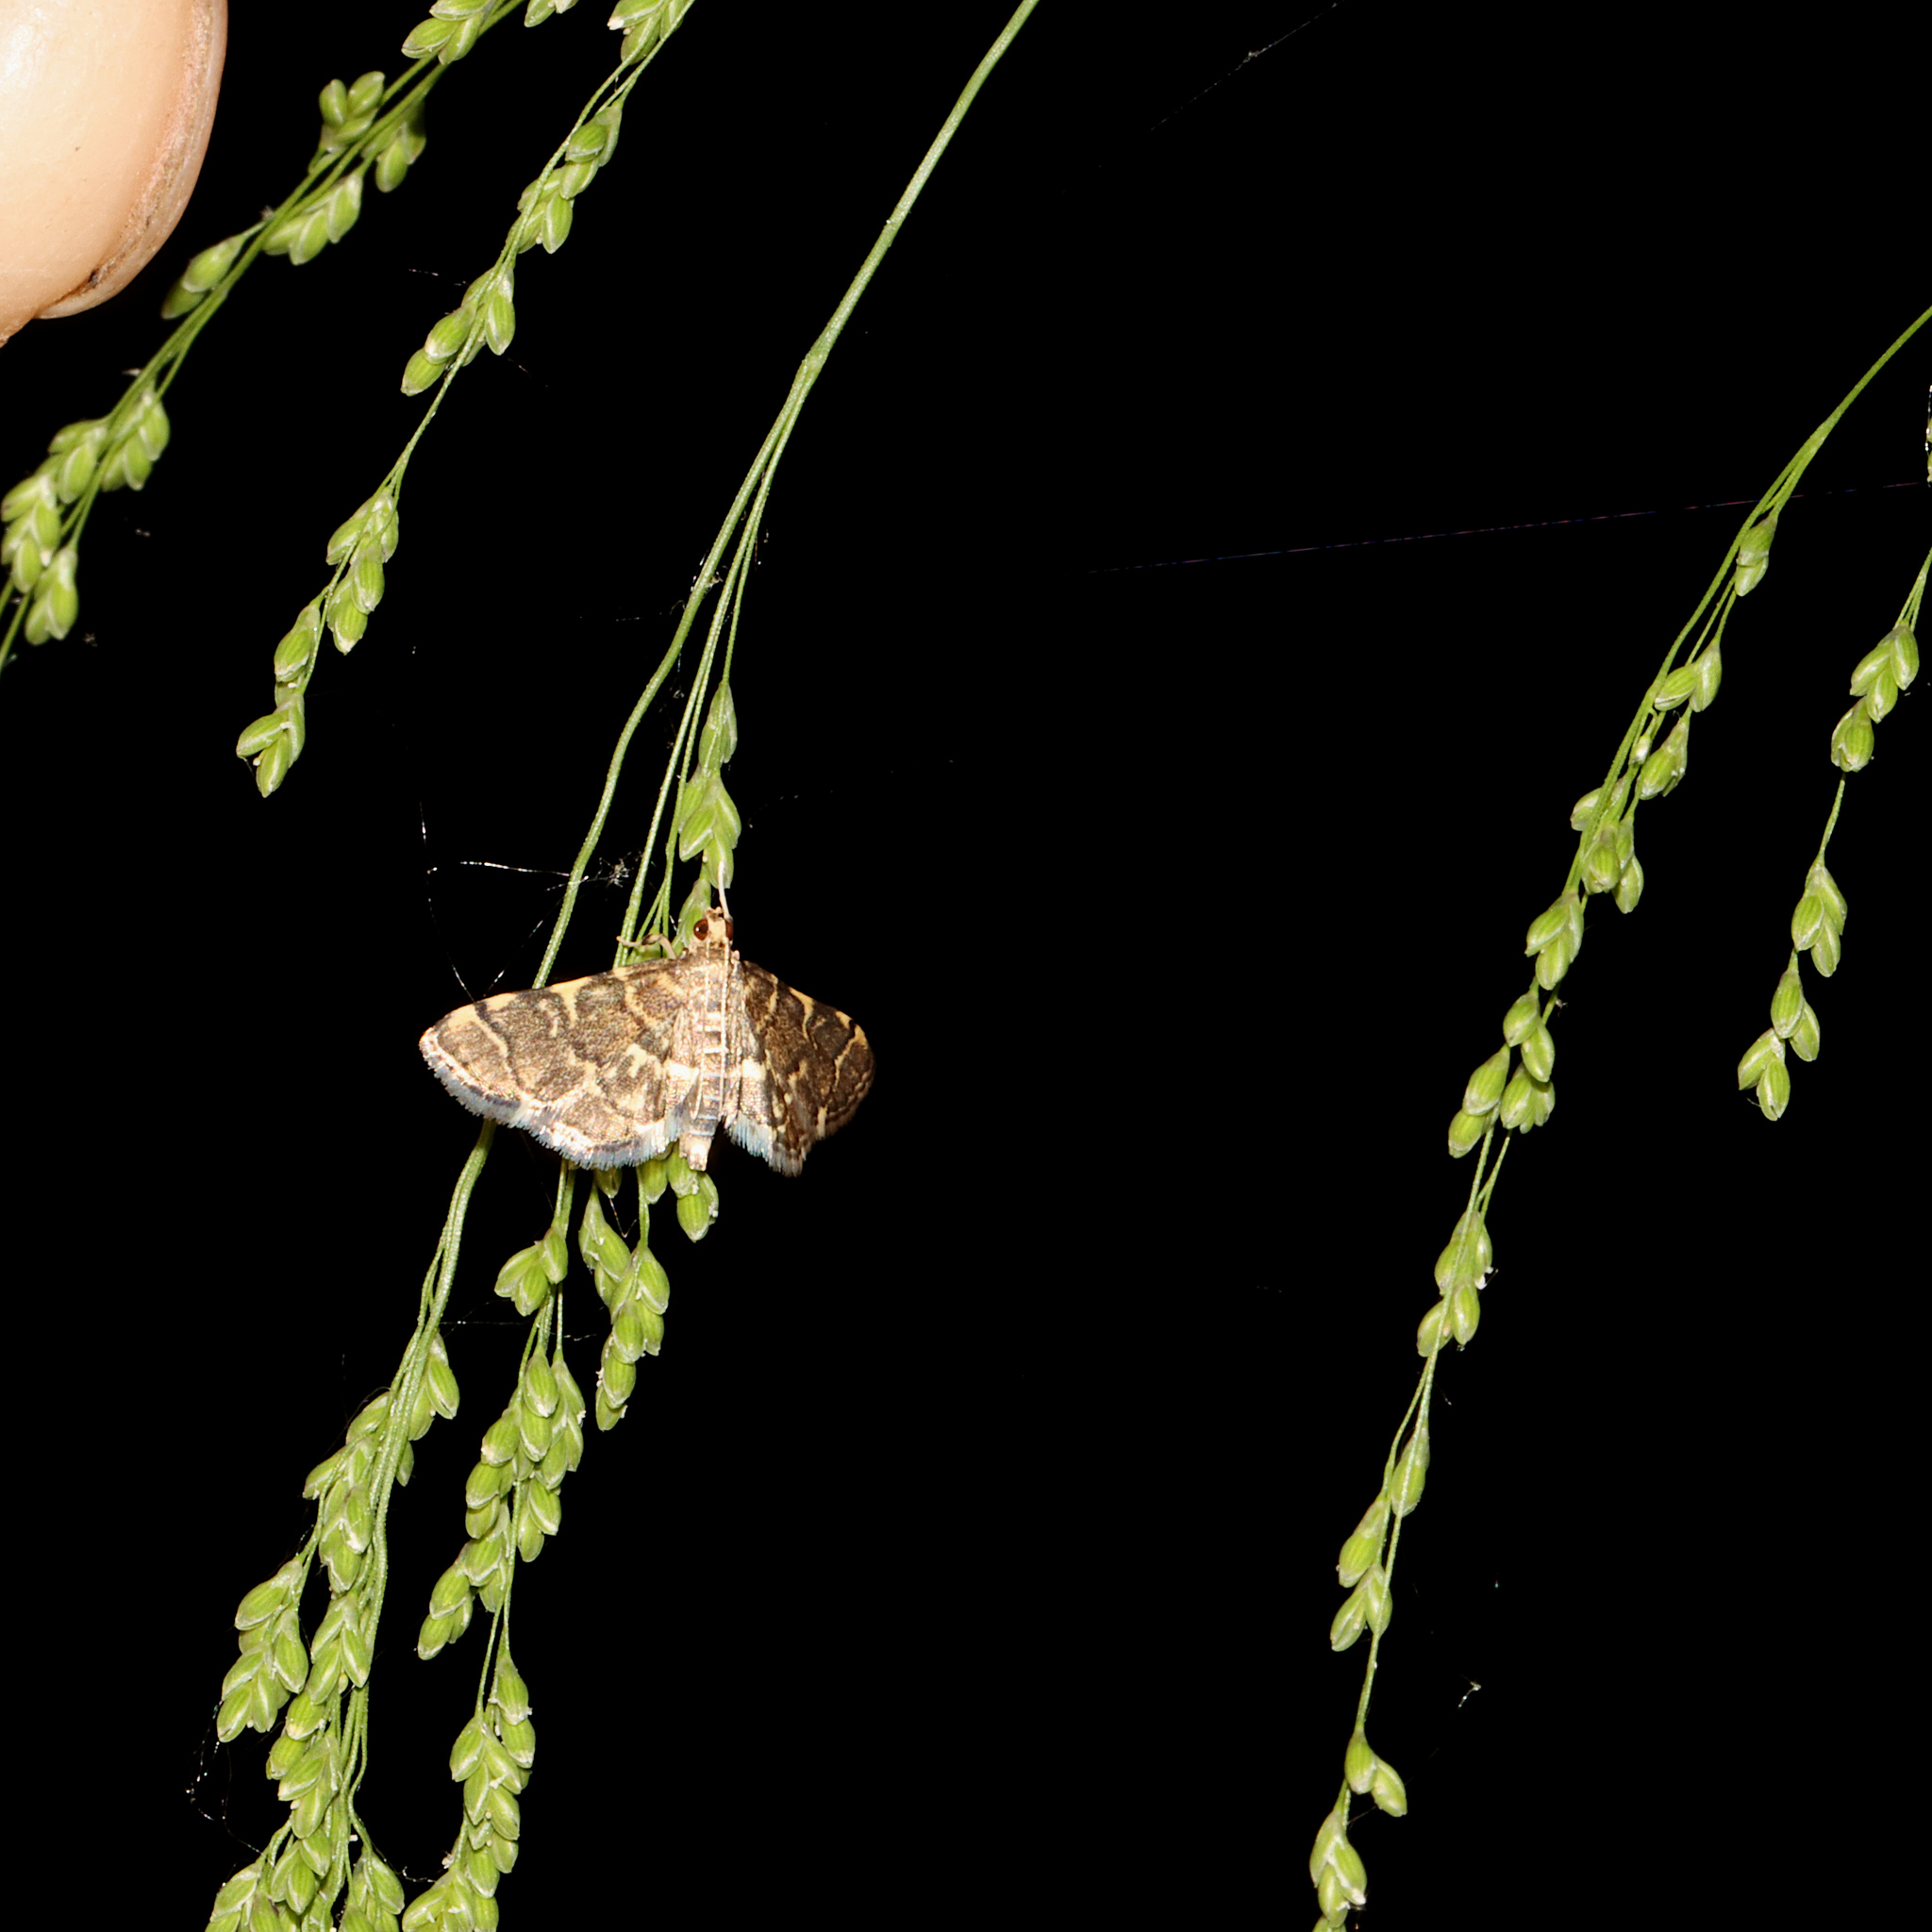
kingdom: Animalia
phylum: Arthropoda
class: Insecta
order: Lepidoptera
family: Crambidae
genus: Anageshna
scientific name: Anageshna primordialis
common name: Yellow-spotted webworm moth
